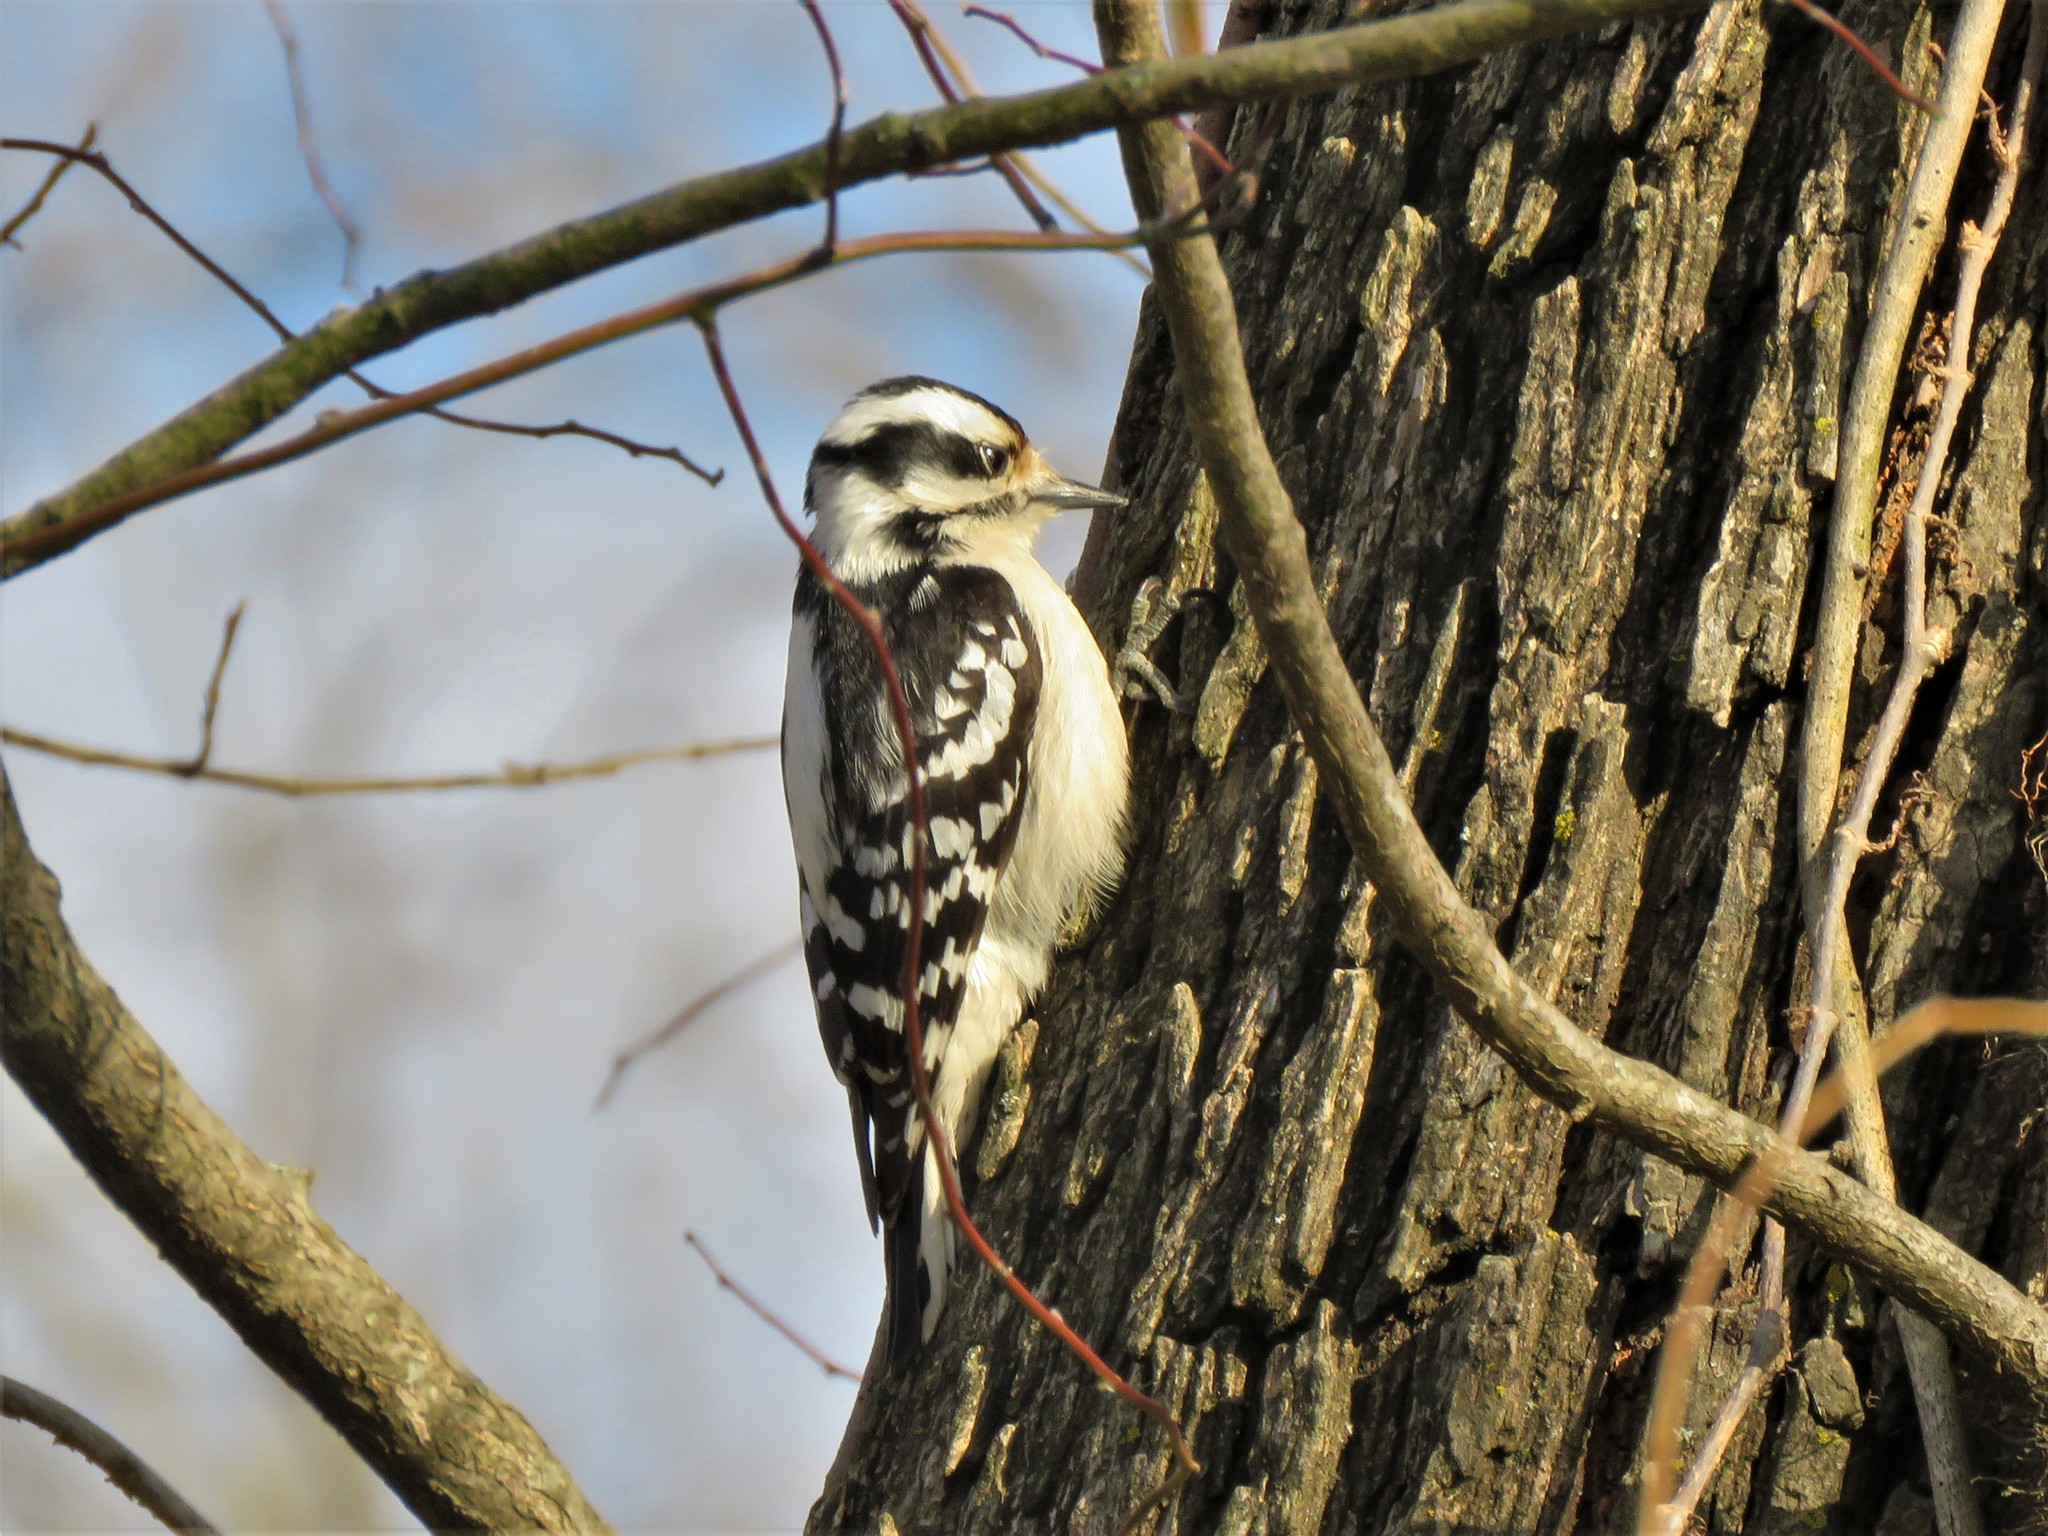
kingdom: Animalia
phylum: Chordata
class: Aves
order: Piciformes
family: Picidae
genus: Dryobates
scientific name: Dryobates pubescens
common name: Downy woodpecker
